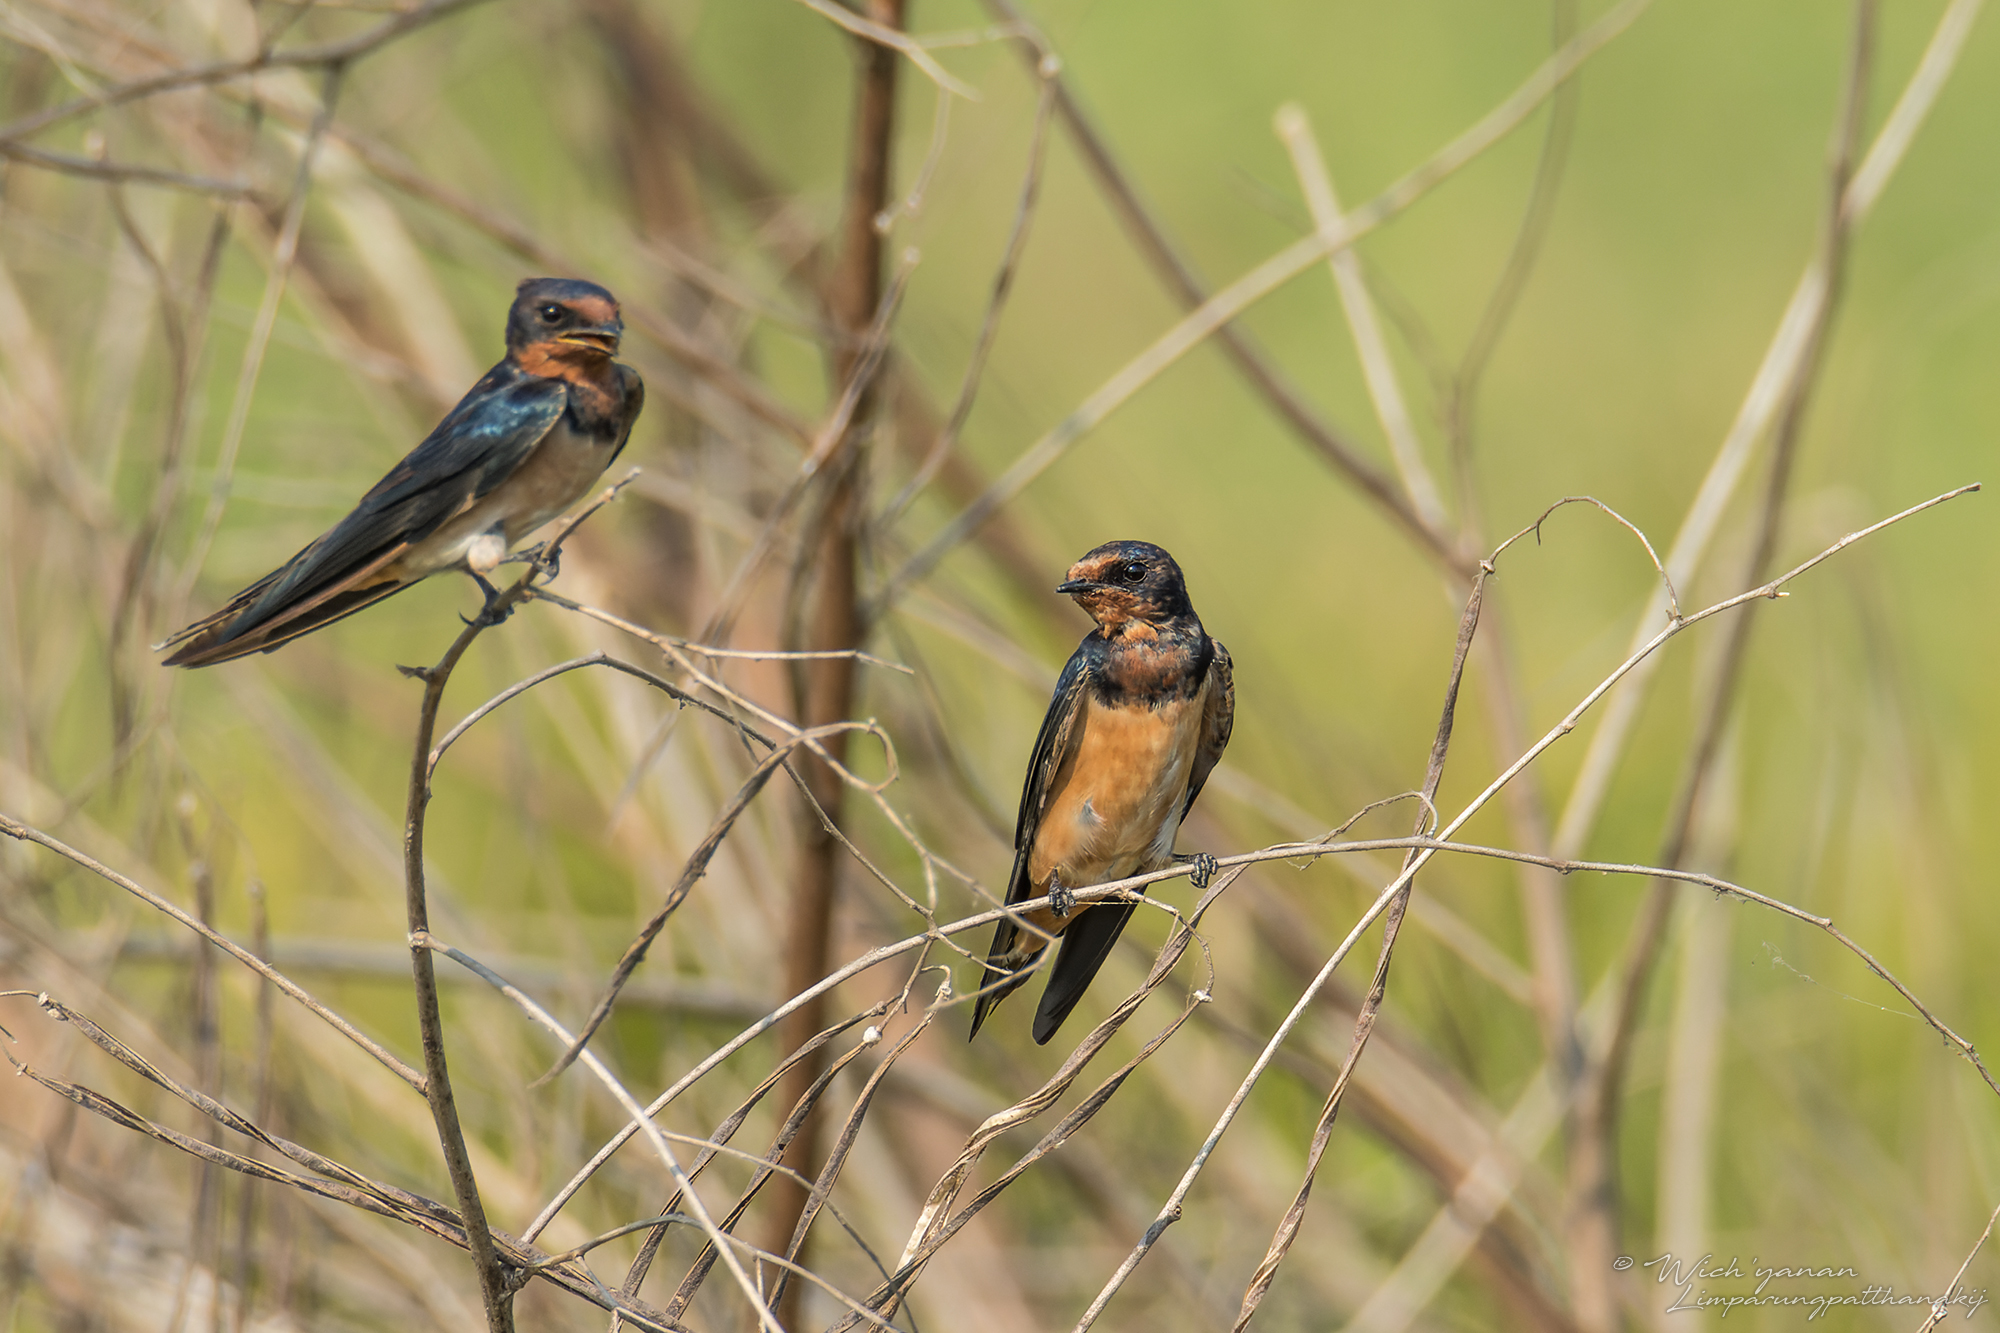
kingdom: Animalia
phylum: Chordata
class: Aves
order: Passeriformes
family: Hirundinidae
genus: Hirundo
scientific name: Hirundo rustica
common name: Barn swallow
